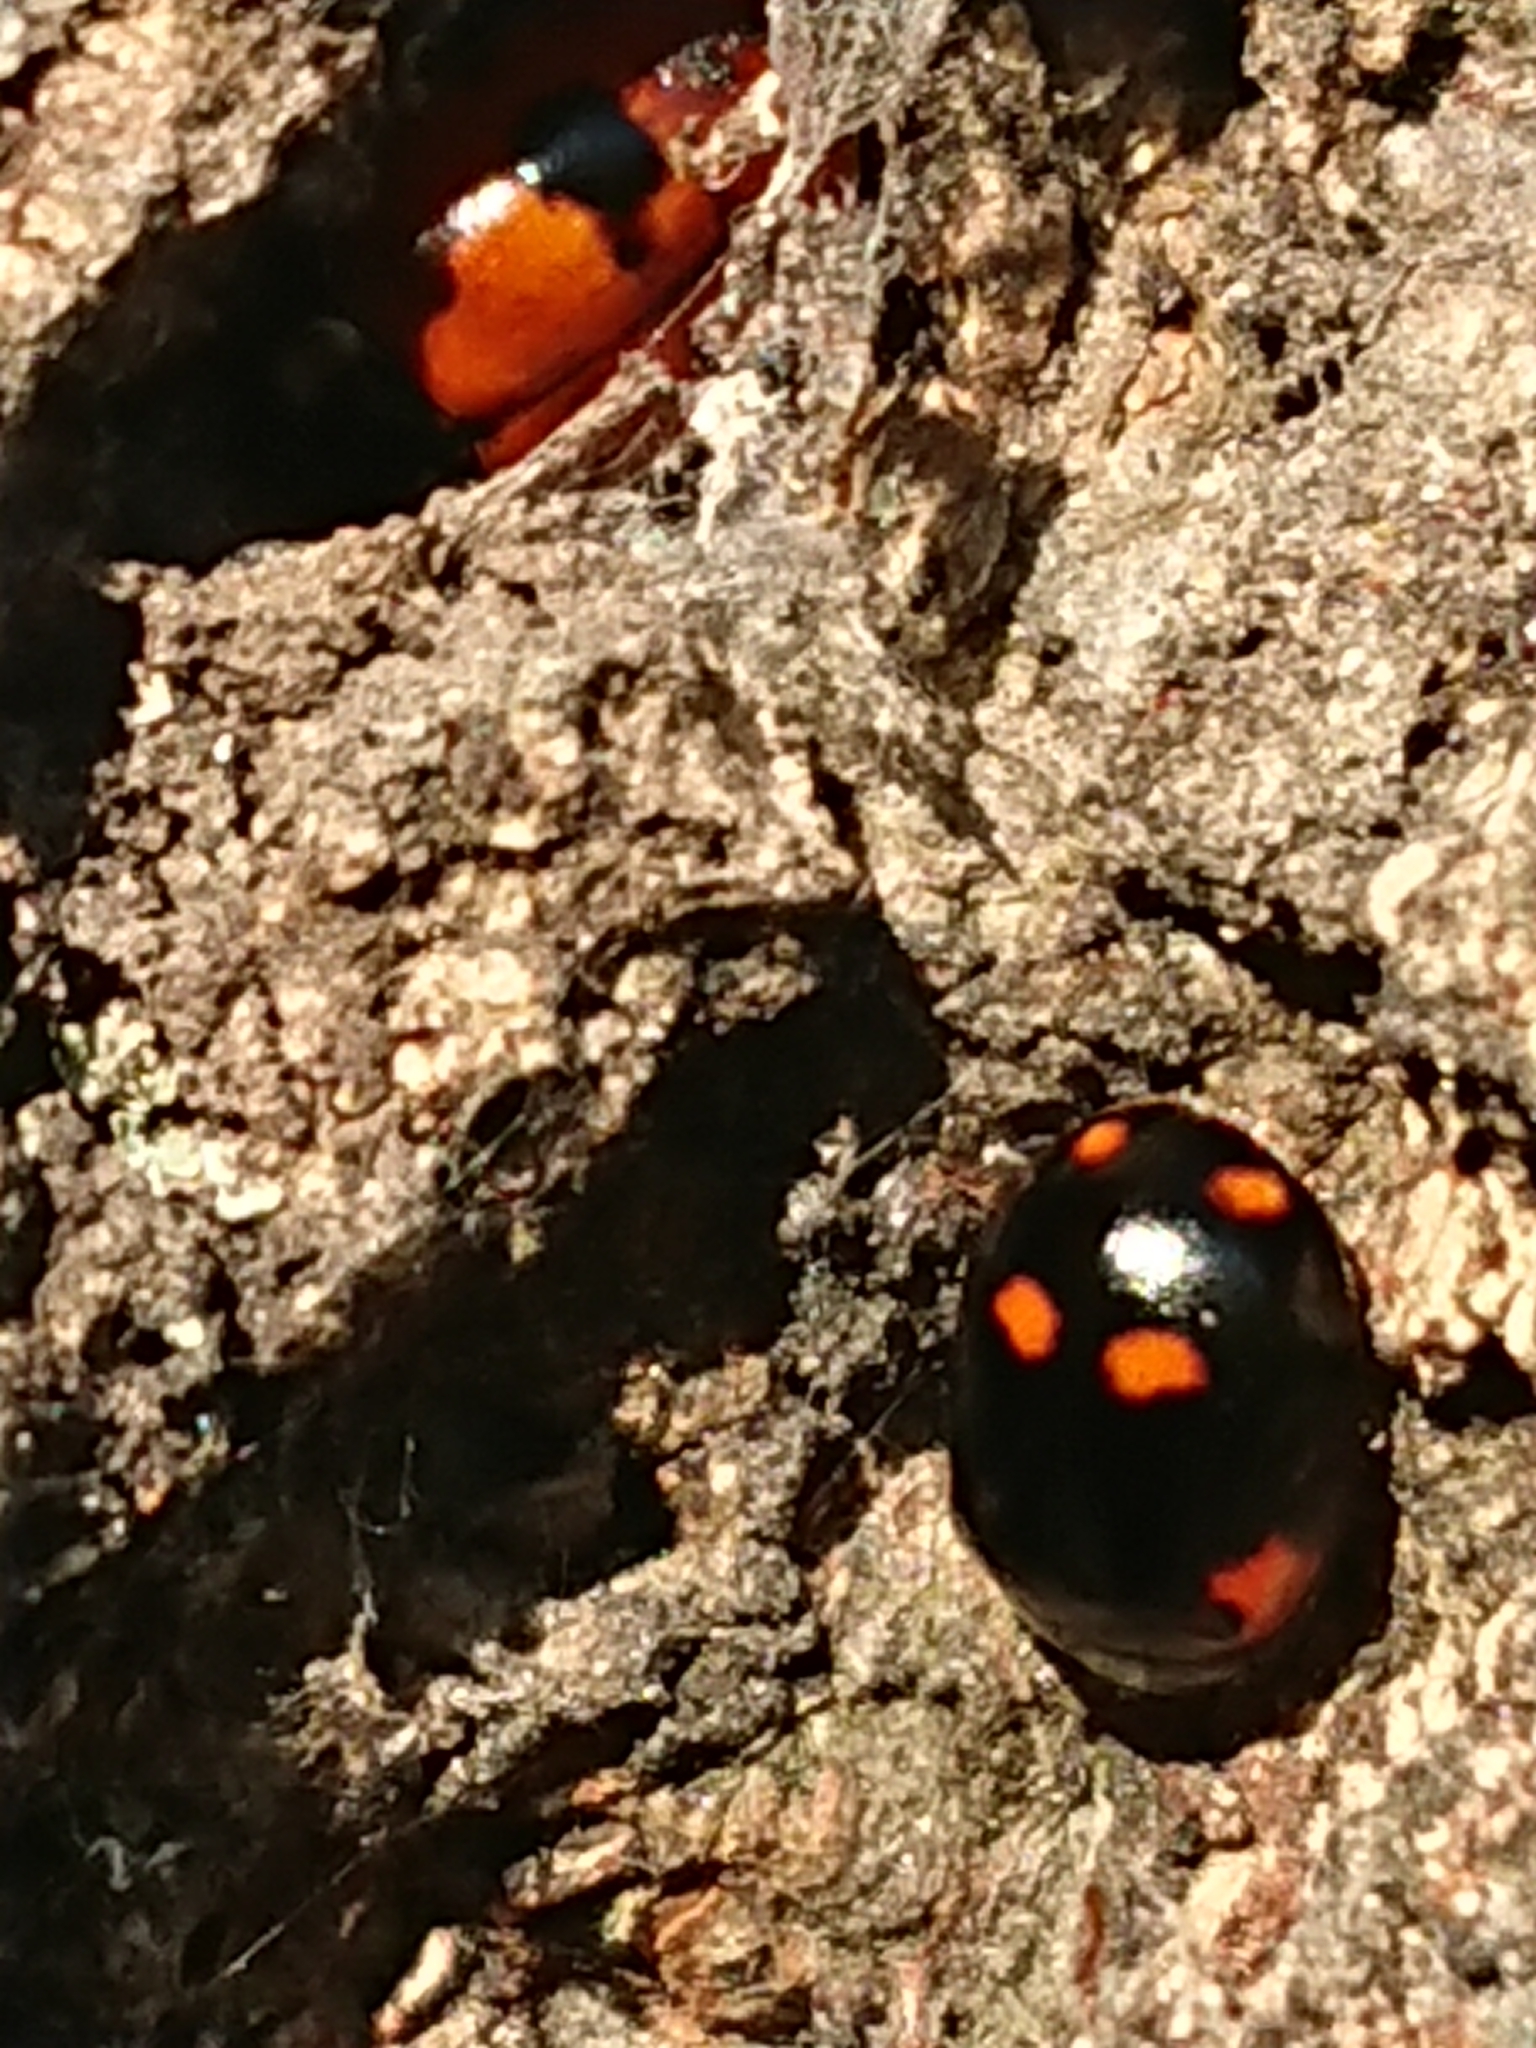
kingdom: Animalia
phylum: Arthropoda
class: Insecta
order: Coleoptera
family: Coccinellidae
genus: Adalia
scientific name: Adalia bipunctata
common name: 2-spot ladybird
